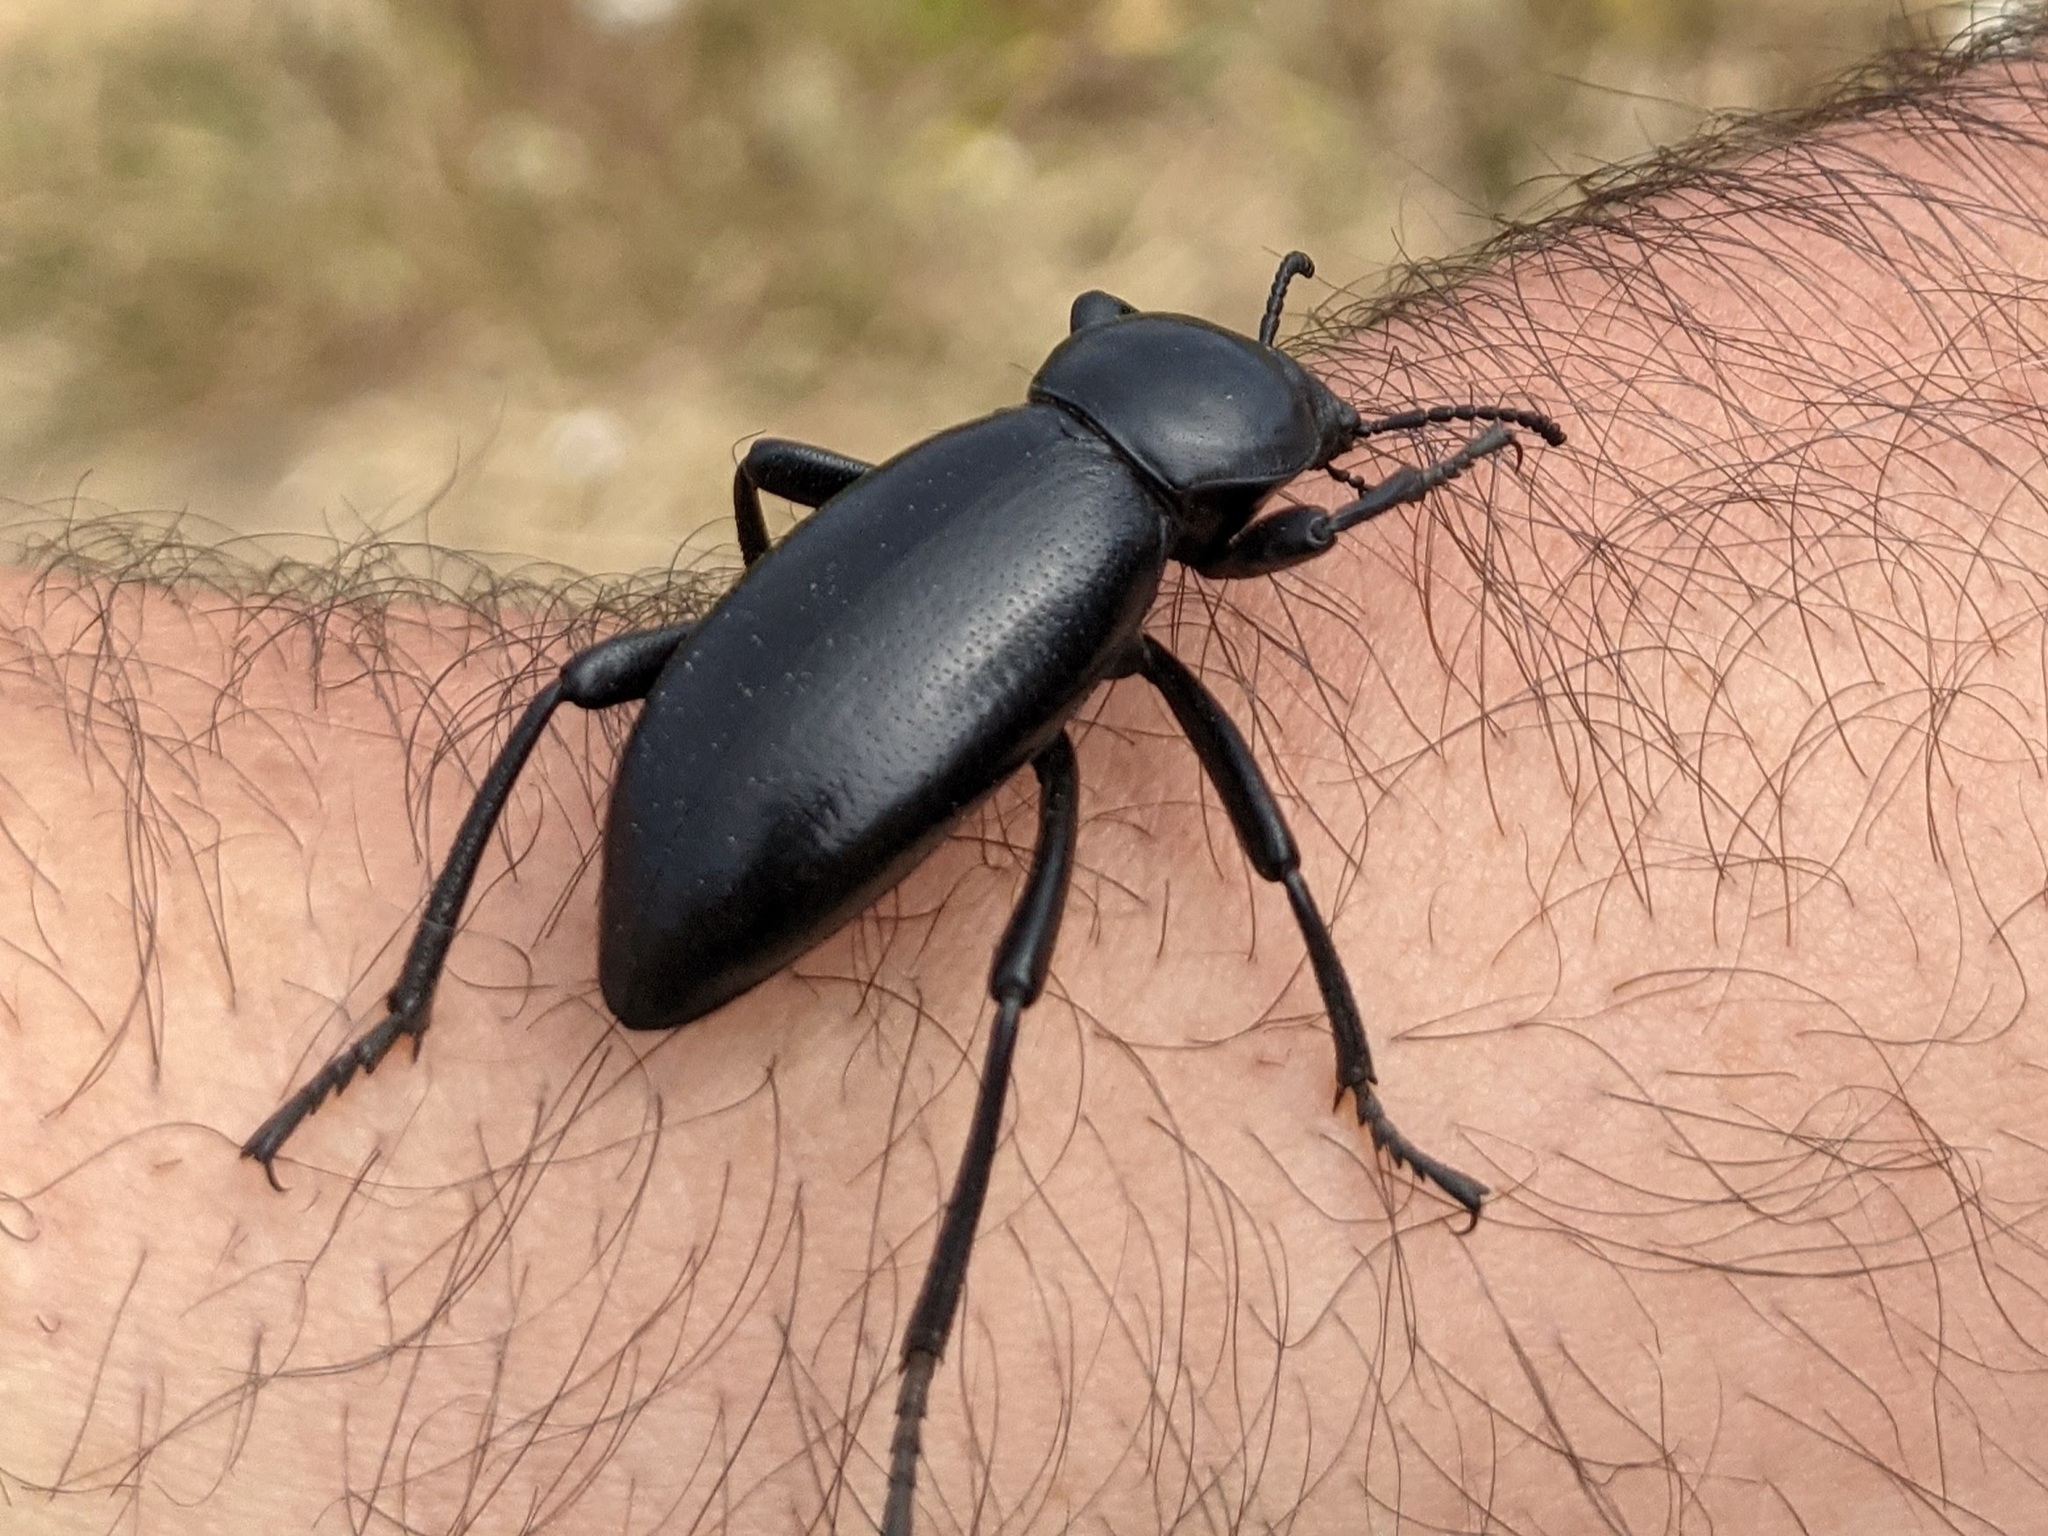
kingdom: Animalia
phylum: Arthropoda
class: Insecta
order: Coleoptera
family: Tenebrionidae
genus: Eleodes
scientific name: Eleodes grandicollis
